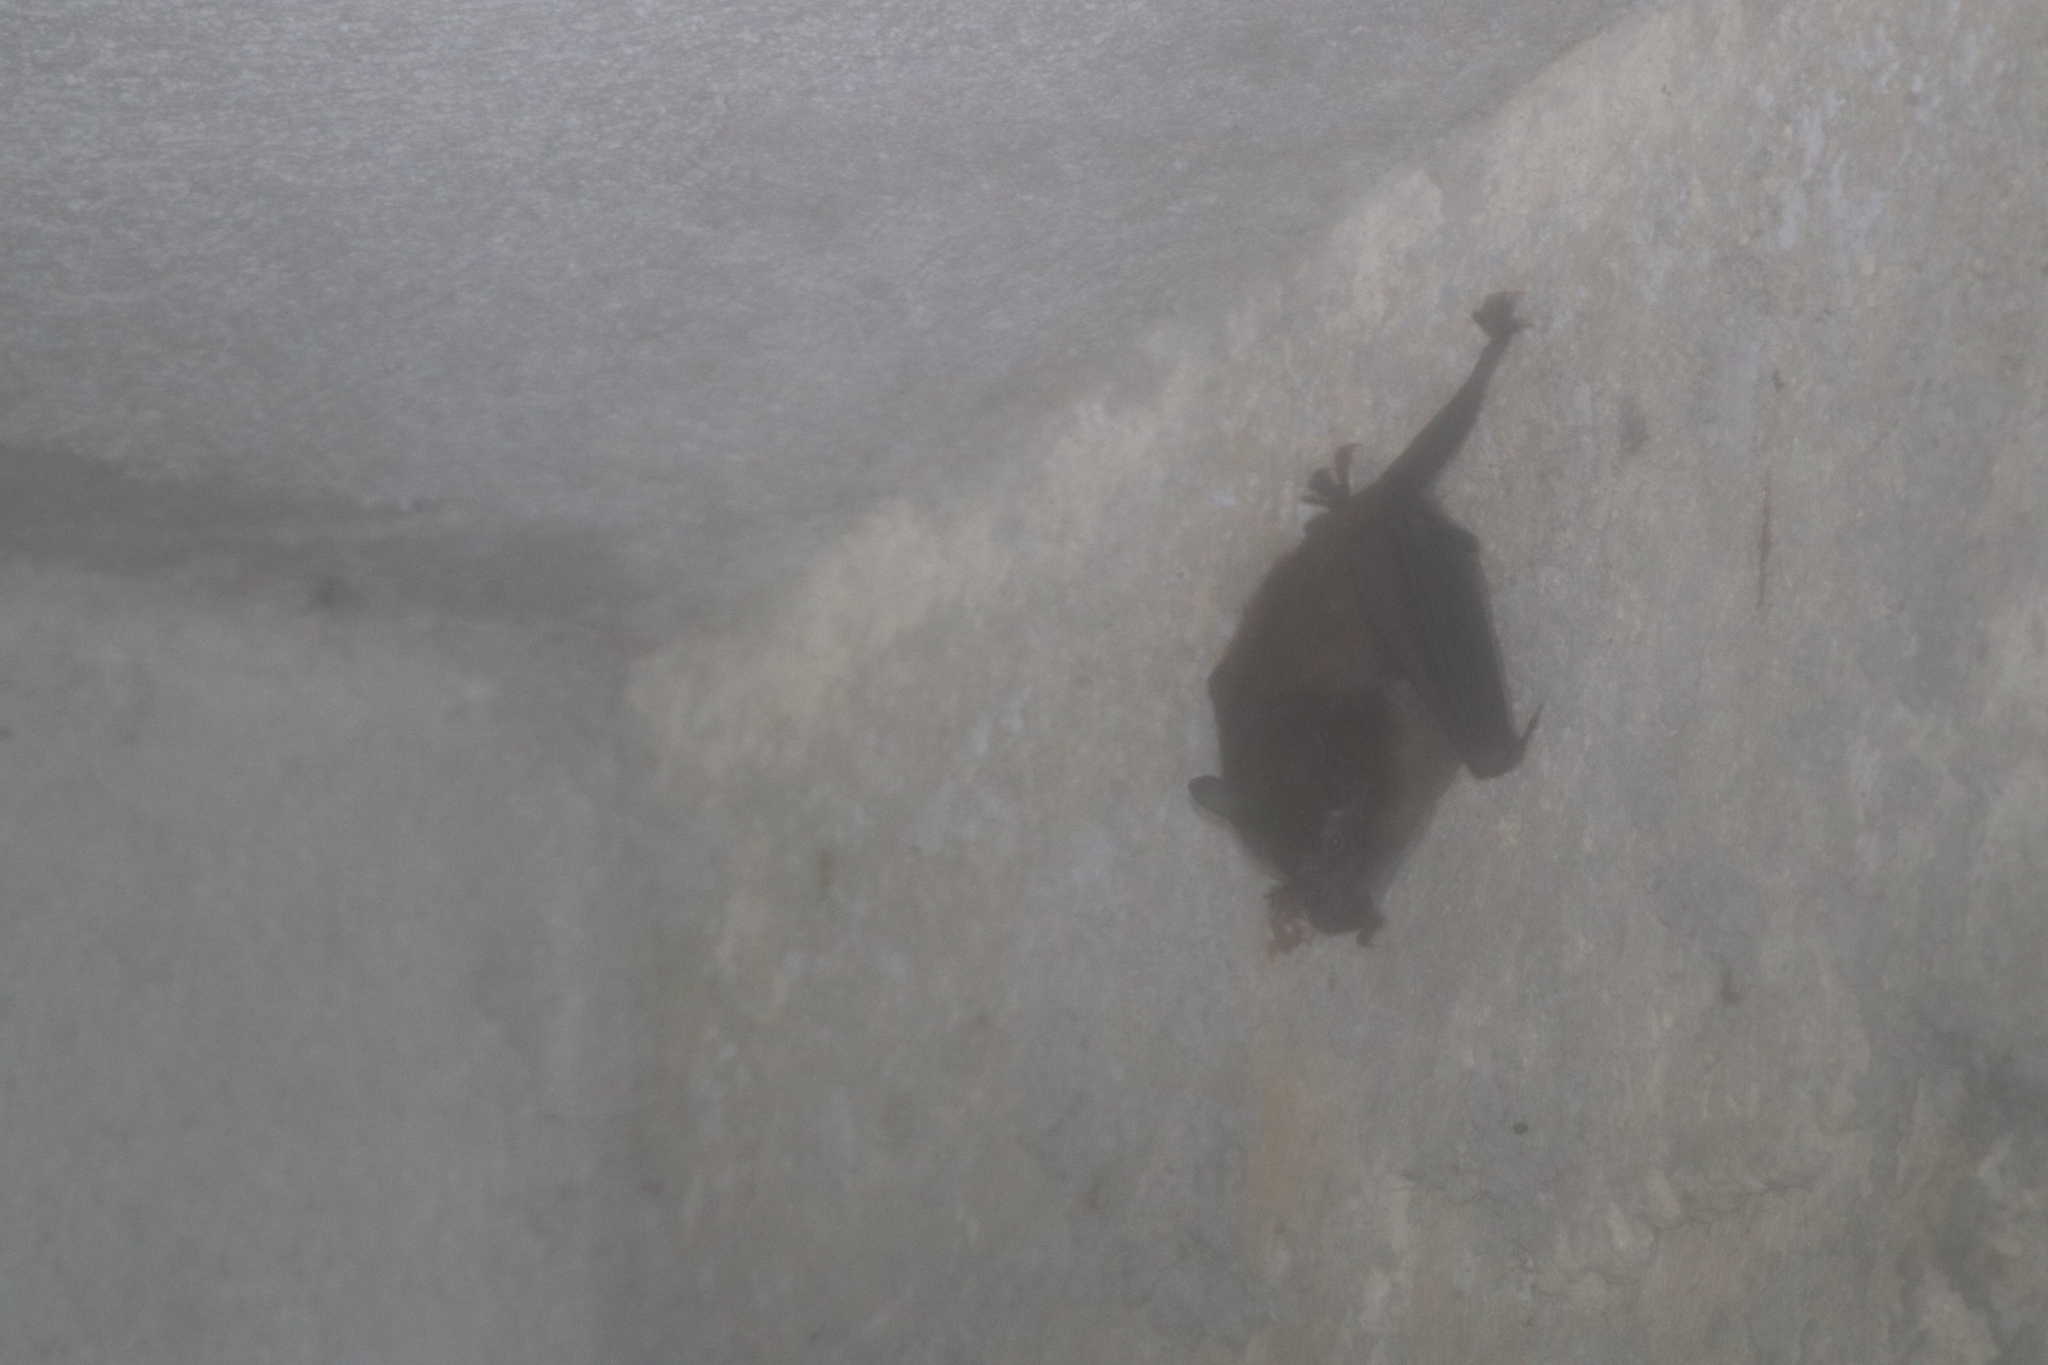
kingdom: Animalia
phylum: Chordata
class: Mammalia
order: Chiroptera
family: Phyllostomidae
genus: Carollia
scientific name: Carollia sowelli
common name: Sowell’s short-tailed bat
